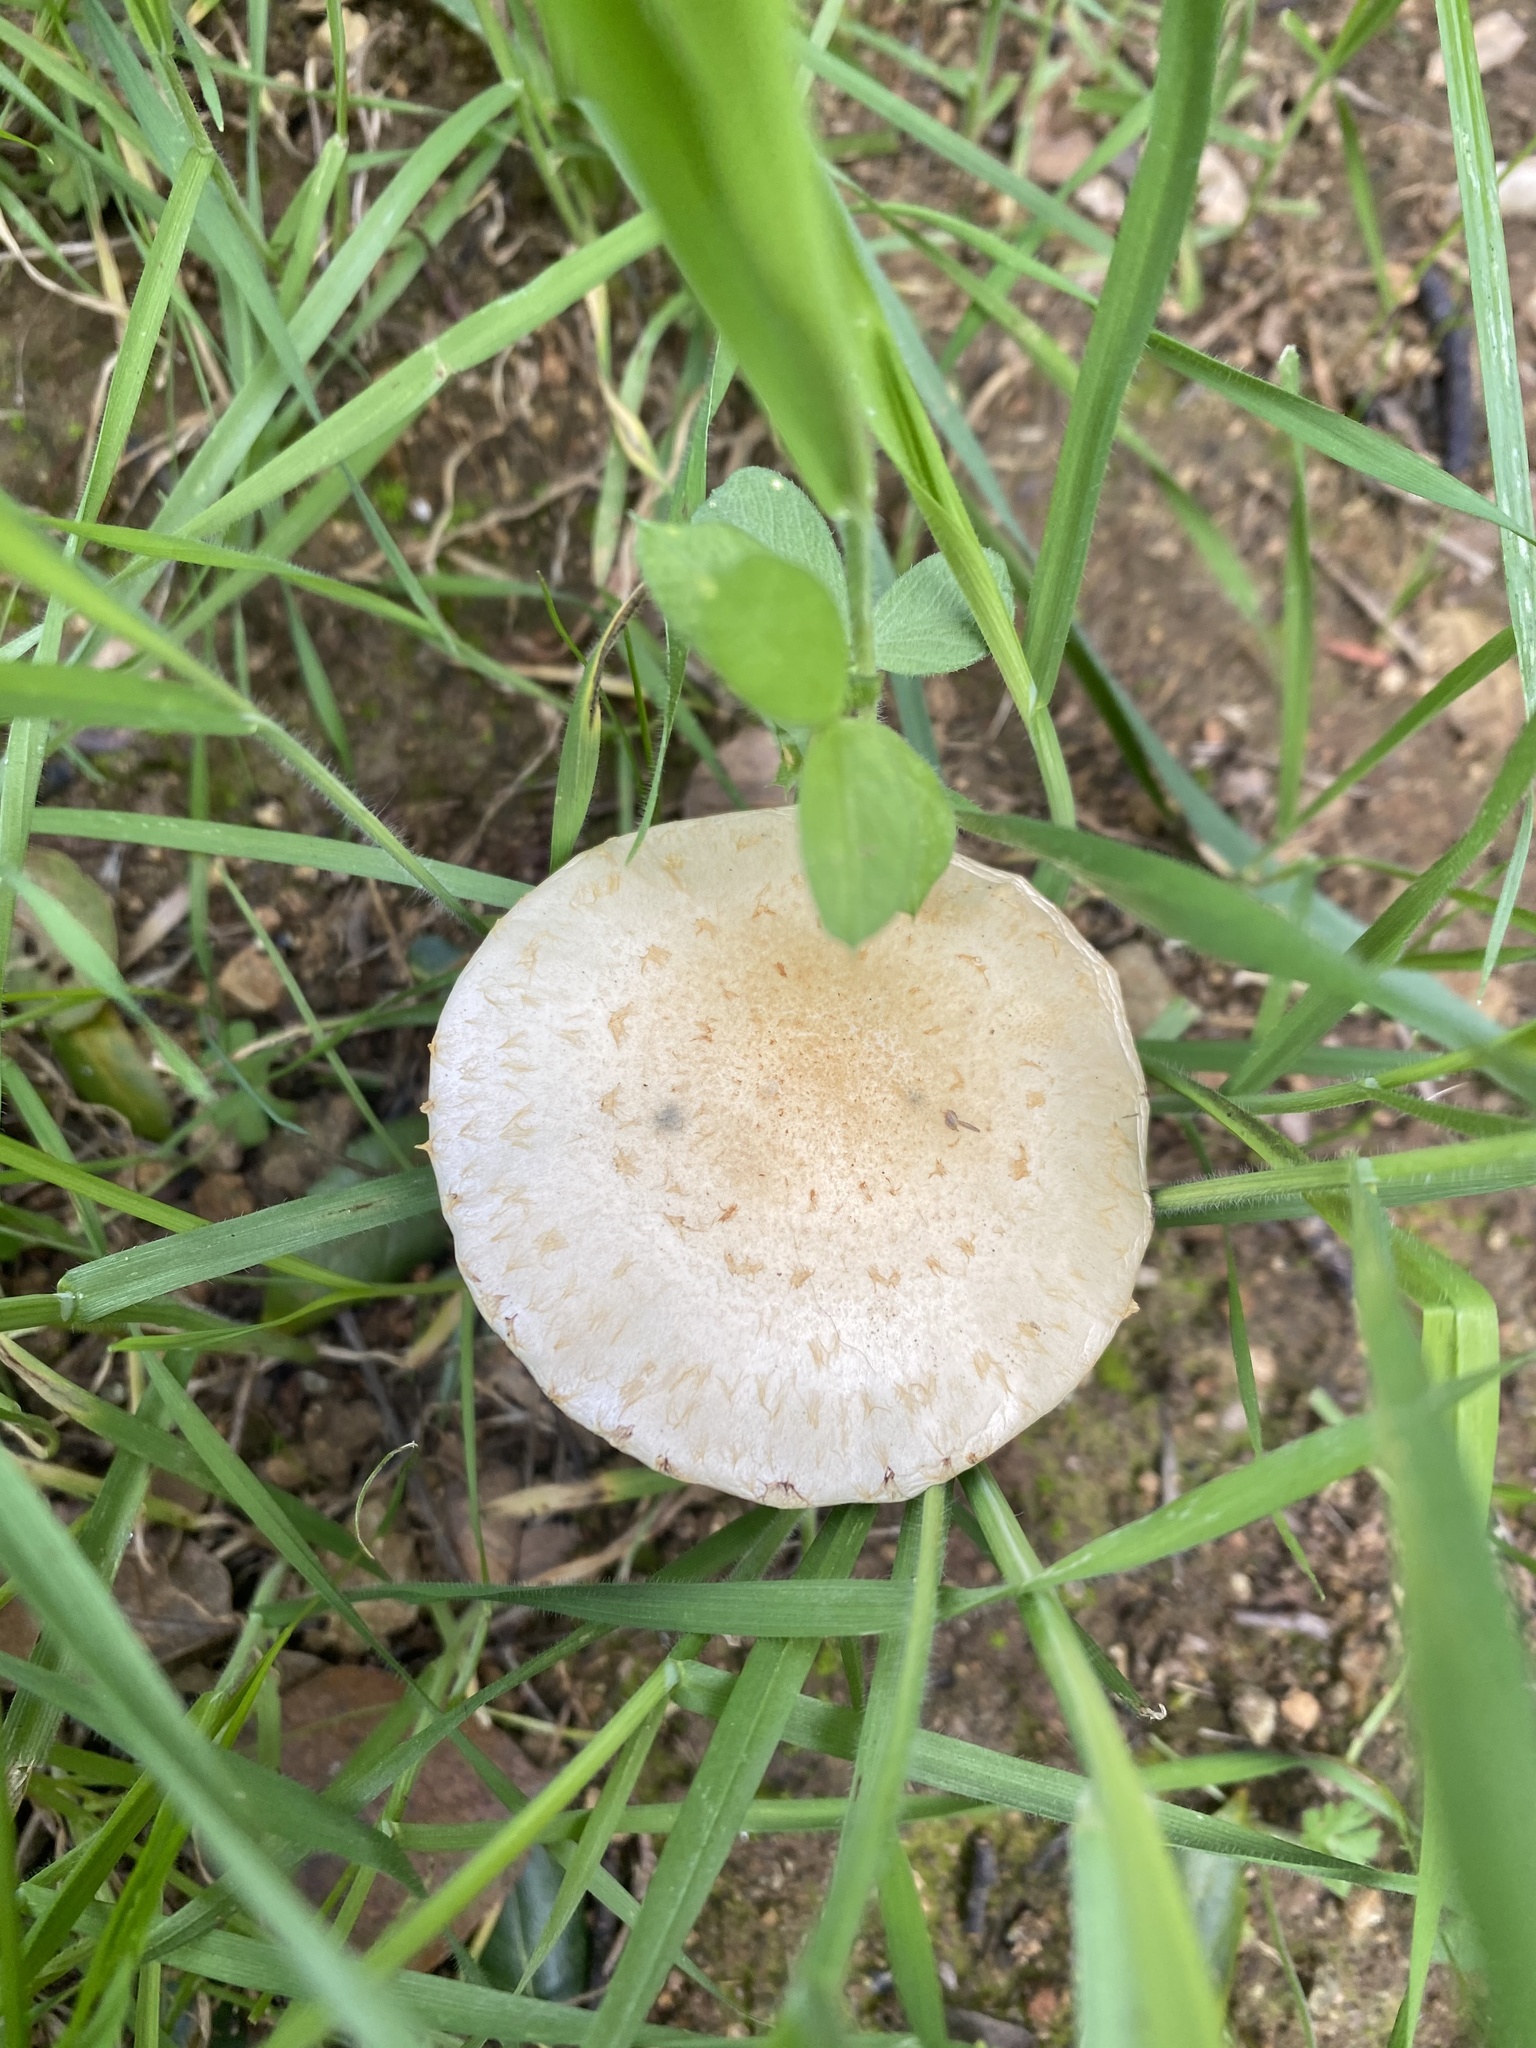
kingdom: Fungi
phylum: Basidiomycota
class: Agaricomycetes
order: Agaricales
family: Strophariaceae
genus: Leratiomyces
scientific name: Leratiomyces percevalii
